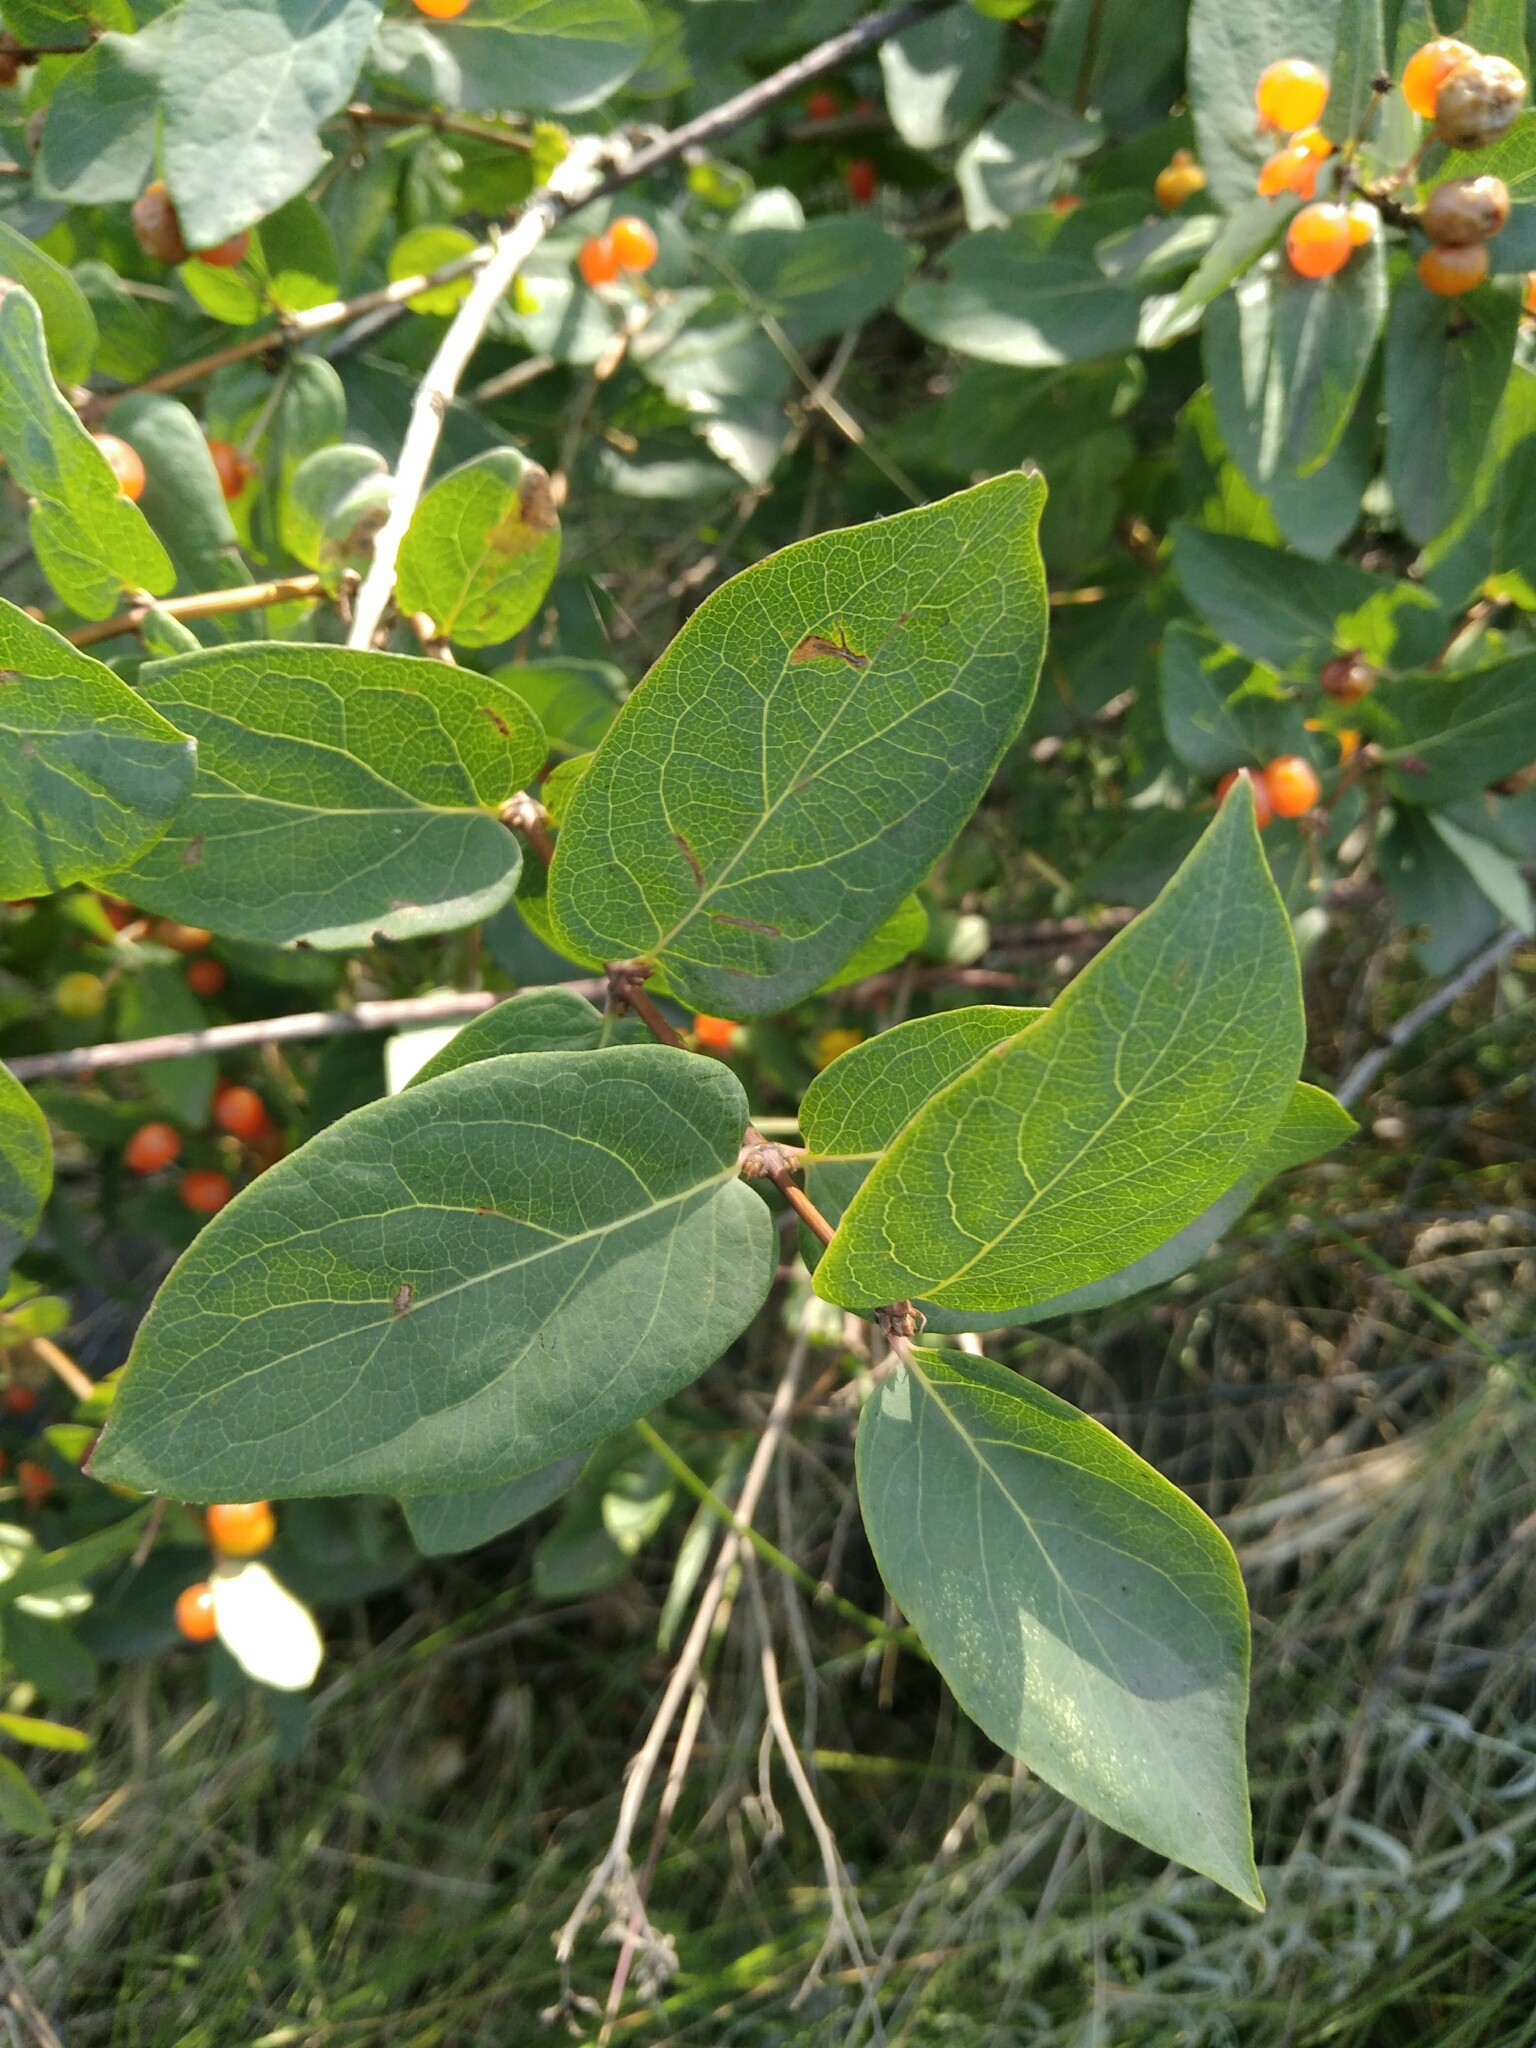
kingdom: Plantae
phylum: Tracheophyta
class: Magnoliopsida
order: Dipsacales
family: Caprifoliaceae
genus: Lonicera
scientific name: Lonicera tatarica
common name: Tatarian honeysuckle
